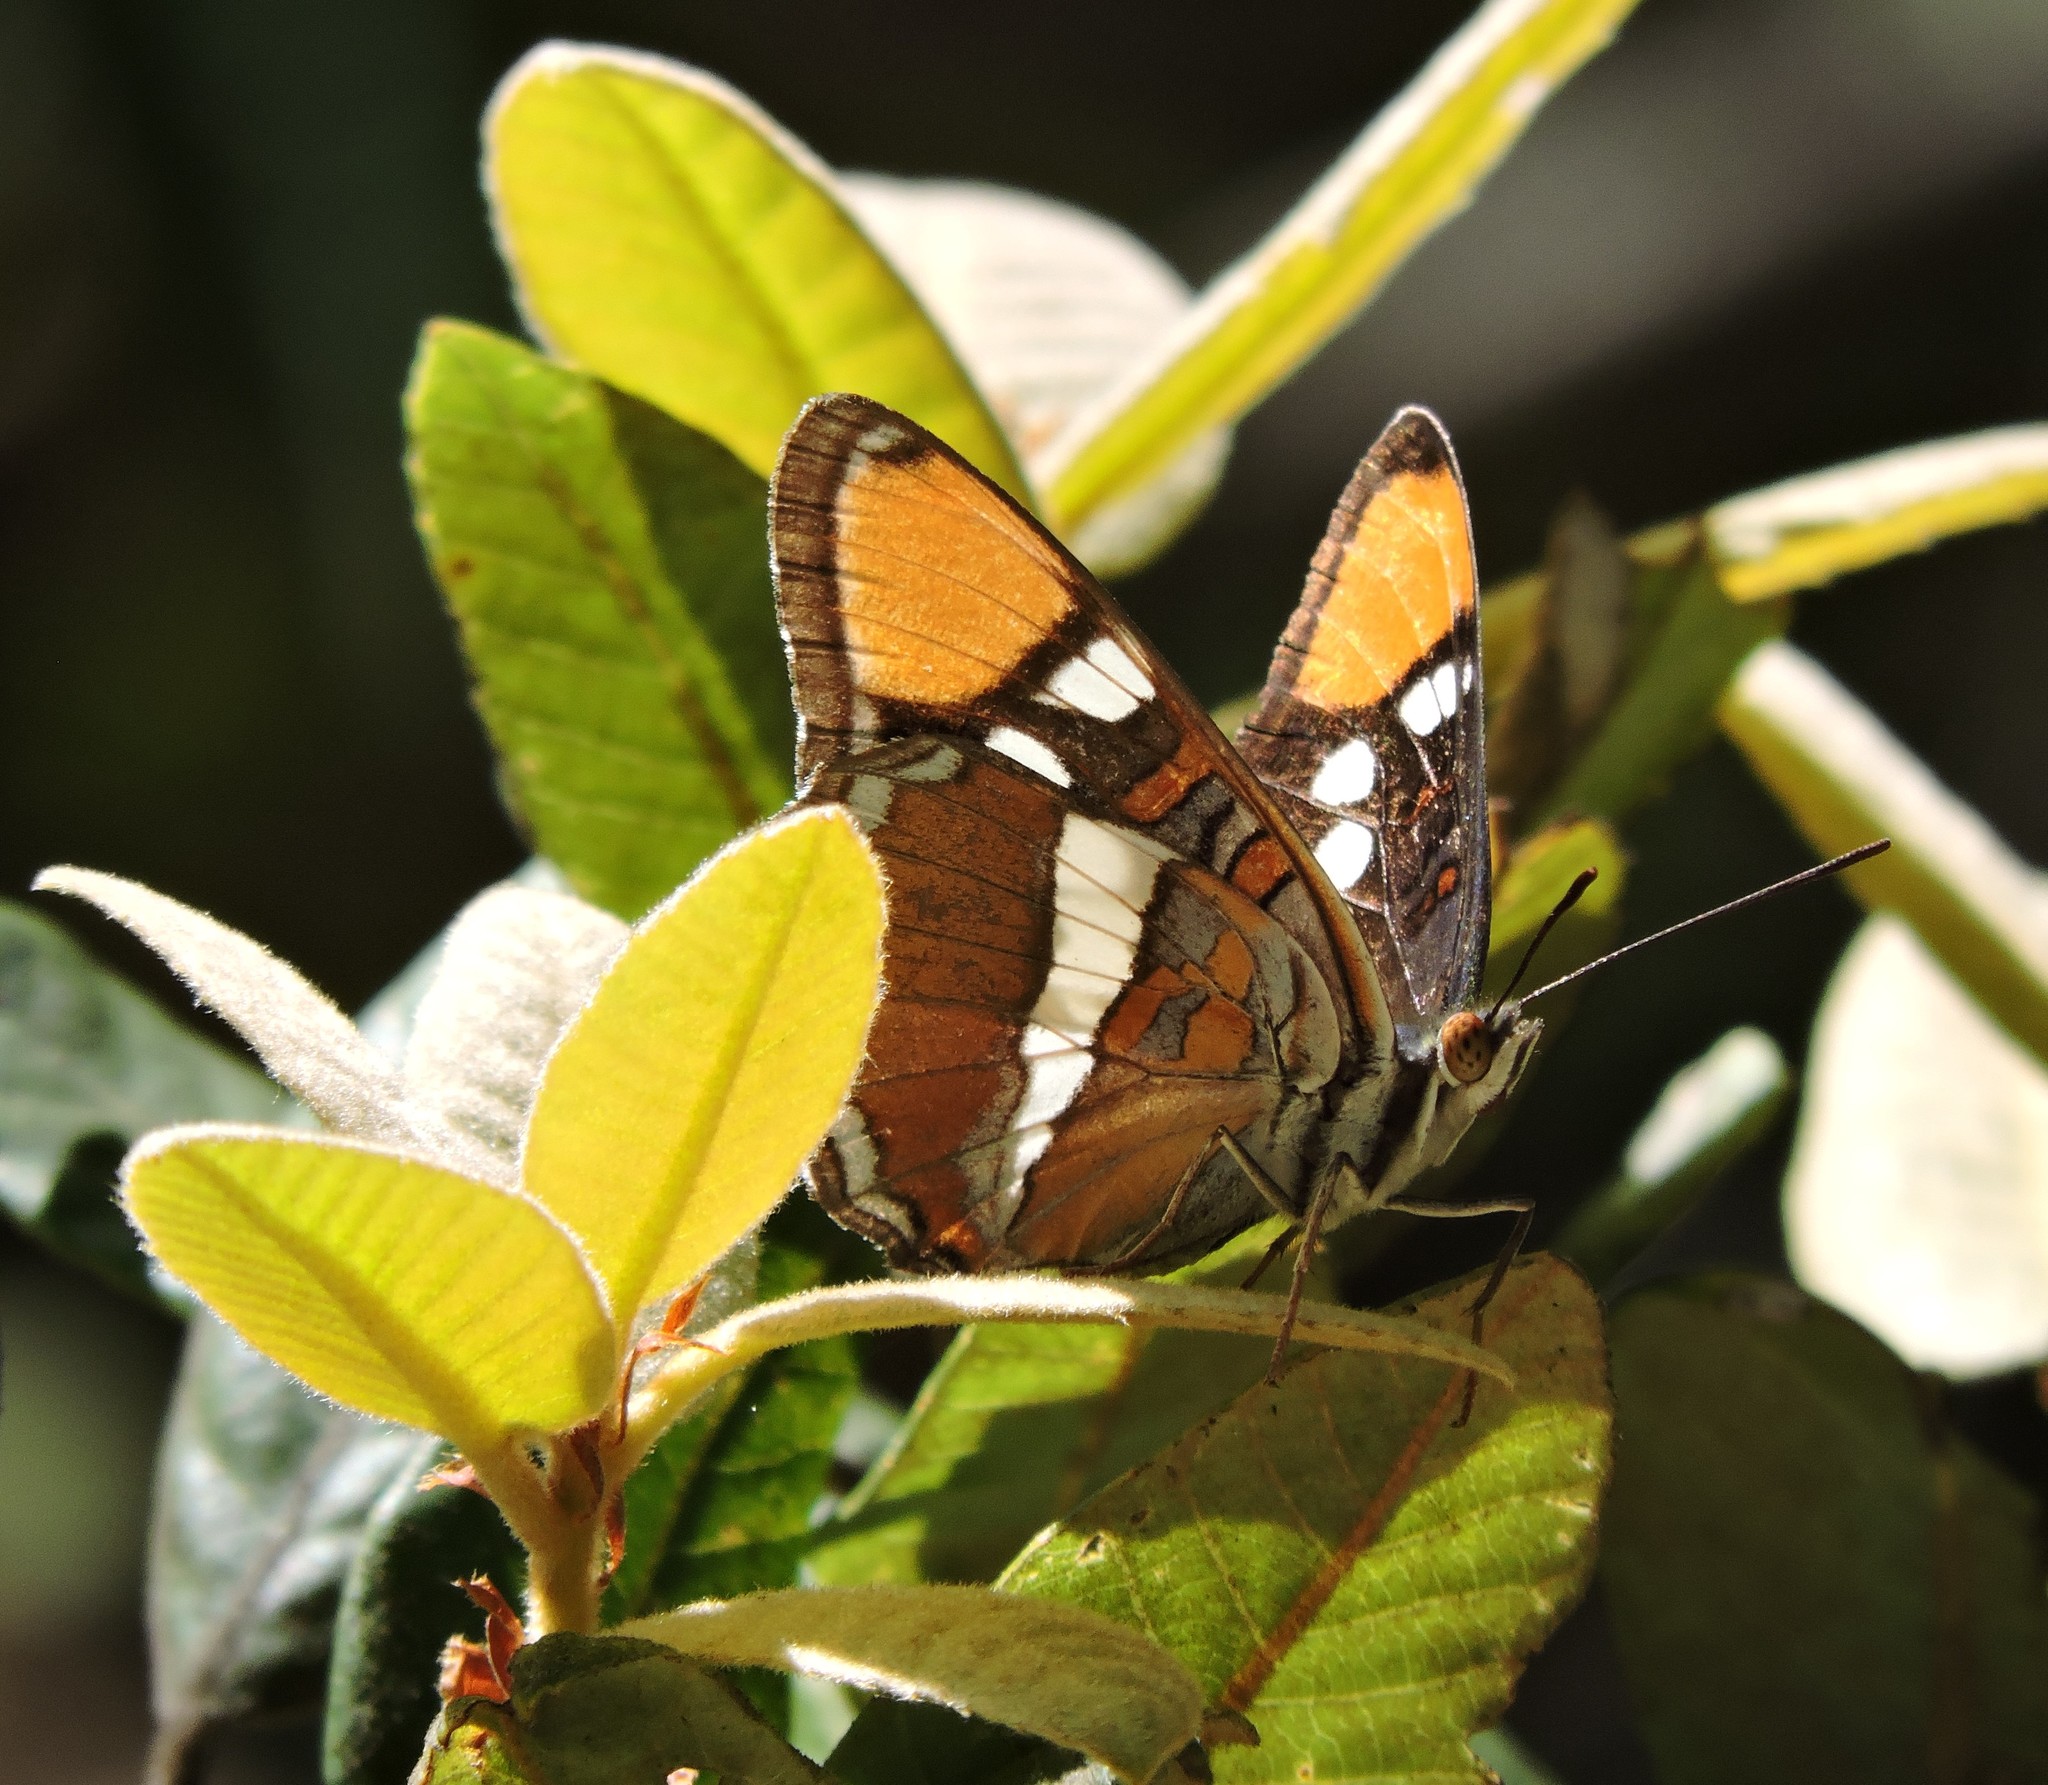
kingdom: Animalia
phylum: Arthropoda
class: Insecta
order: Lepidoptera
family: Nymphalidae
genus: Limenitis
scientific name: Limenitis bredowii
